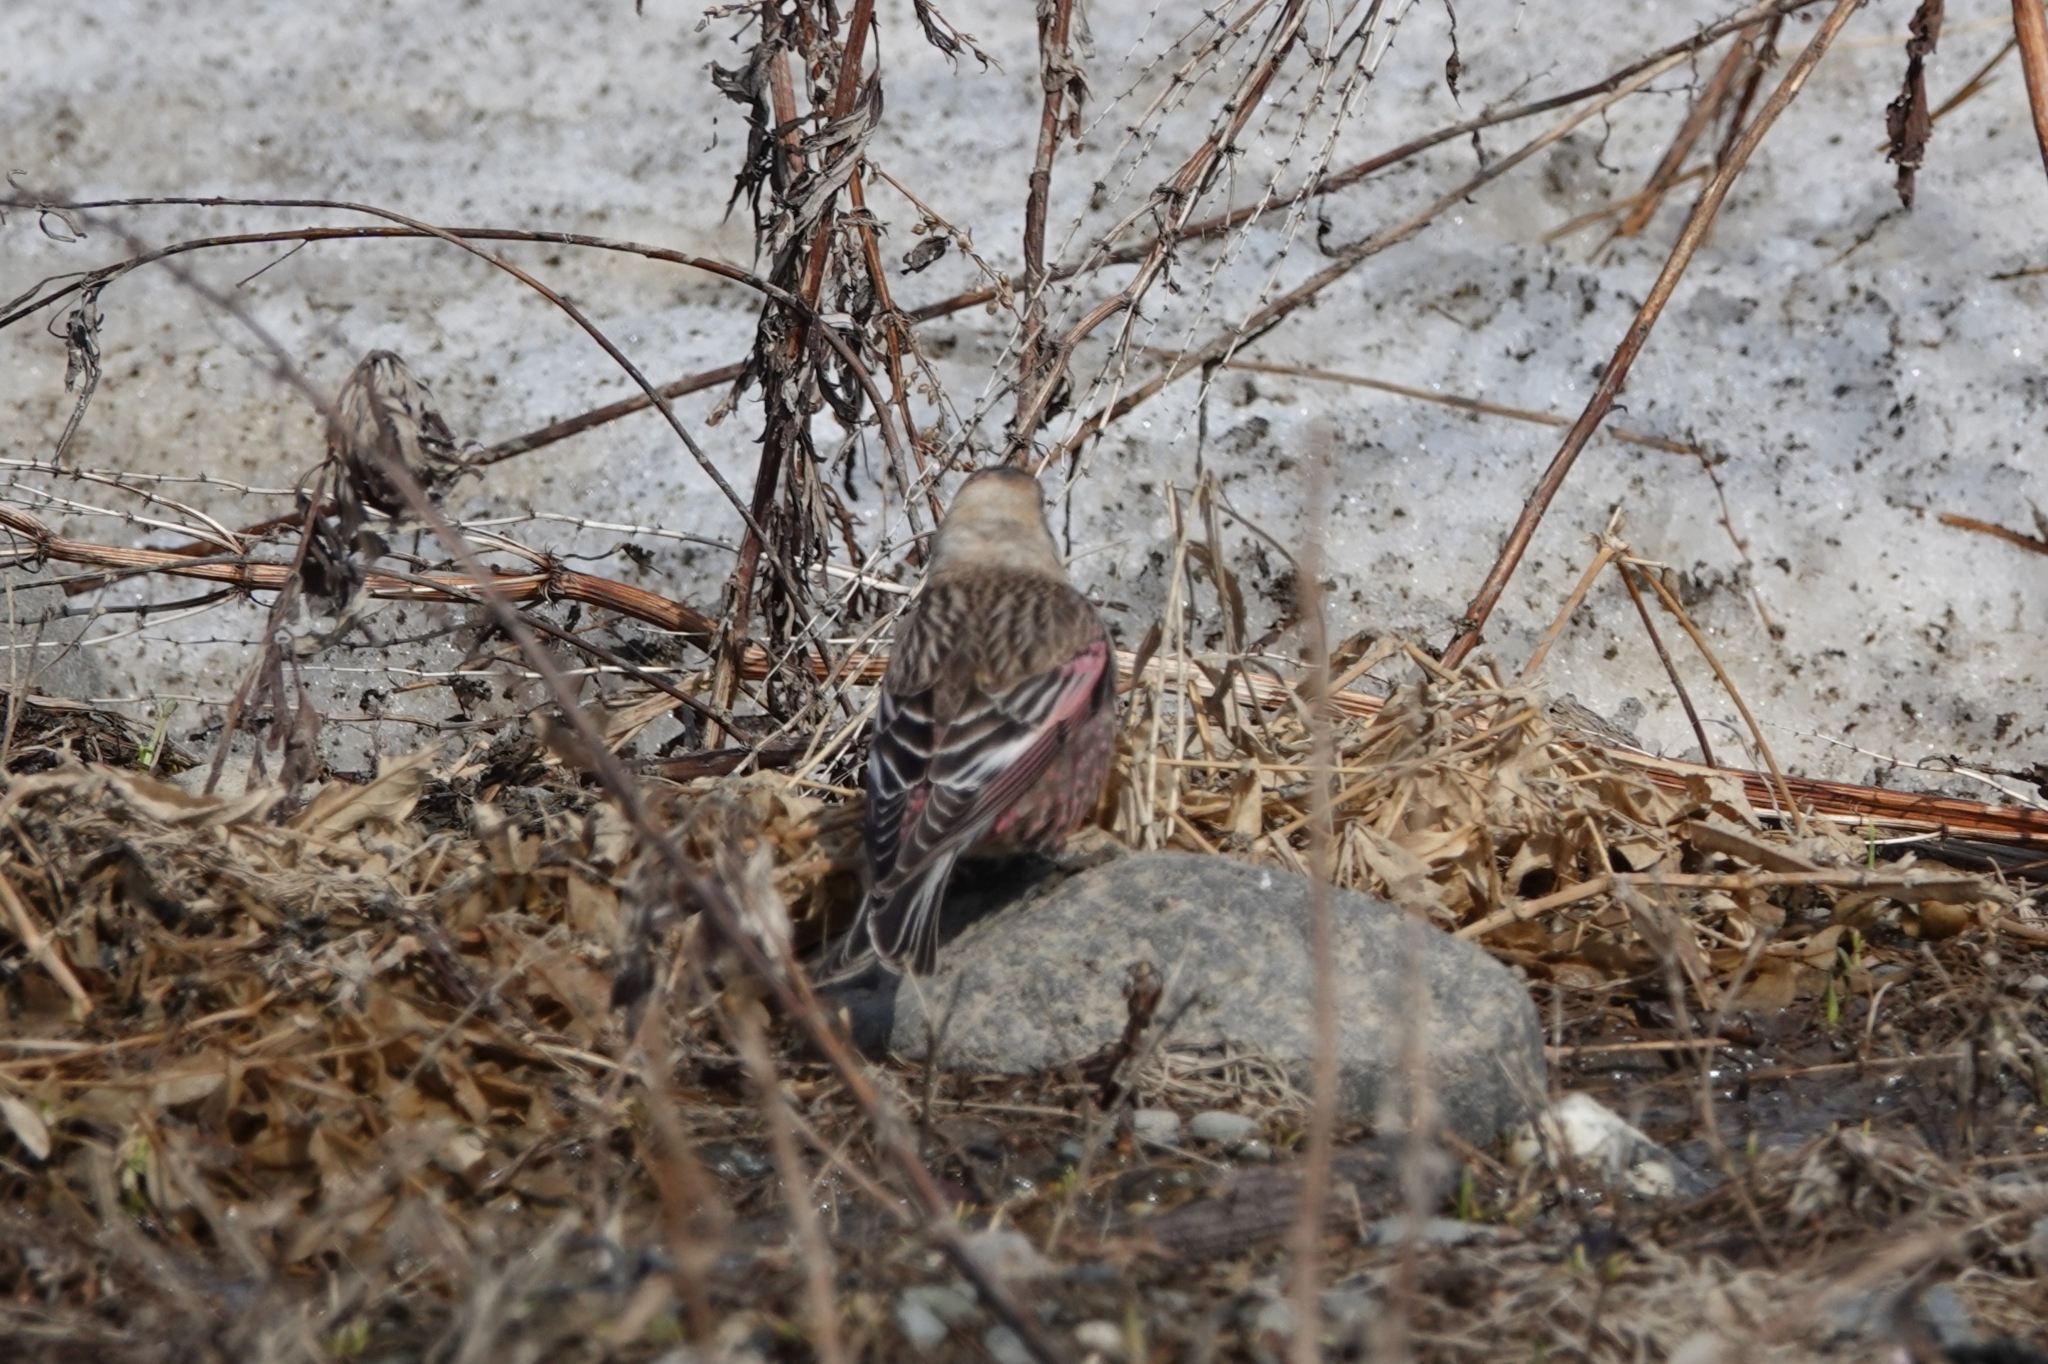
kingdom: Animalia
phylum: Chordata
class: Aves
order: Passeriformes
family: Fringillidae
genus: Leucosticte
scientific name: Leucosticte arctoa
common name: Asian rosy finch
